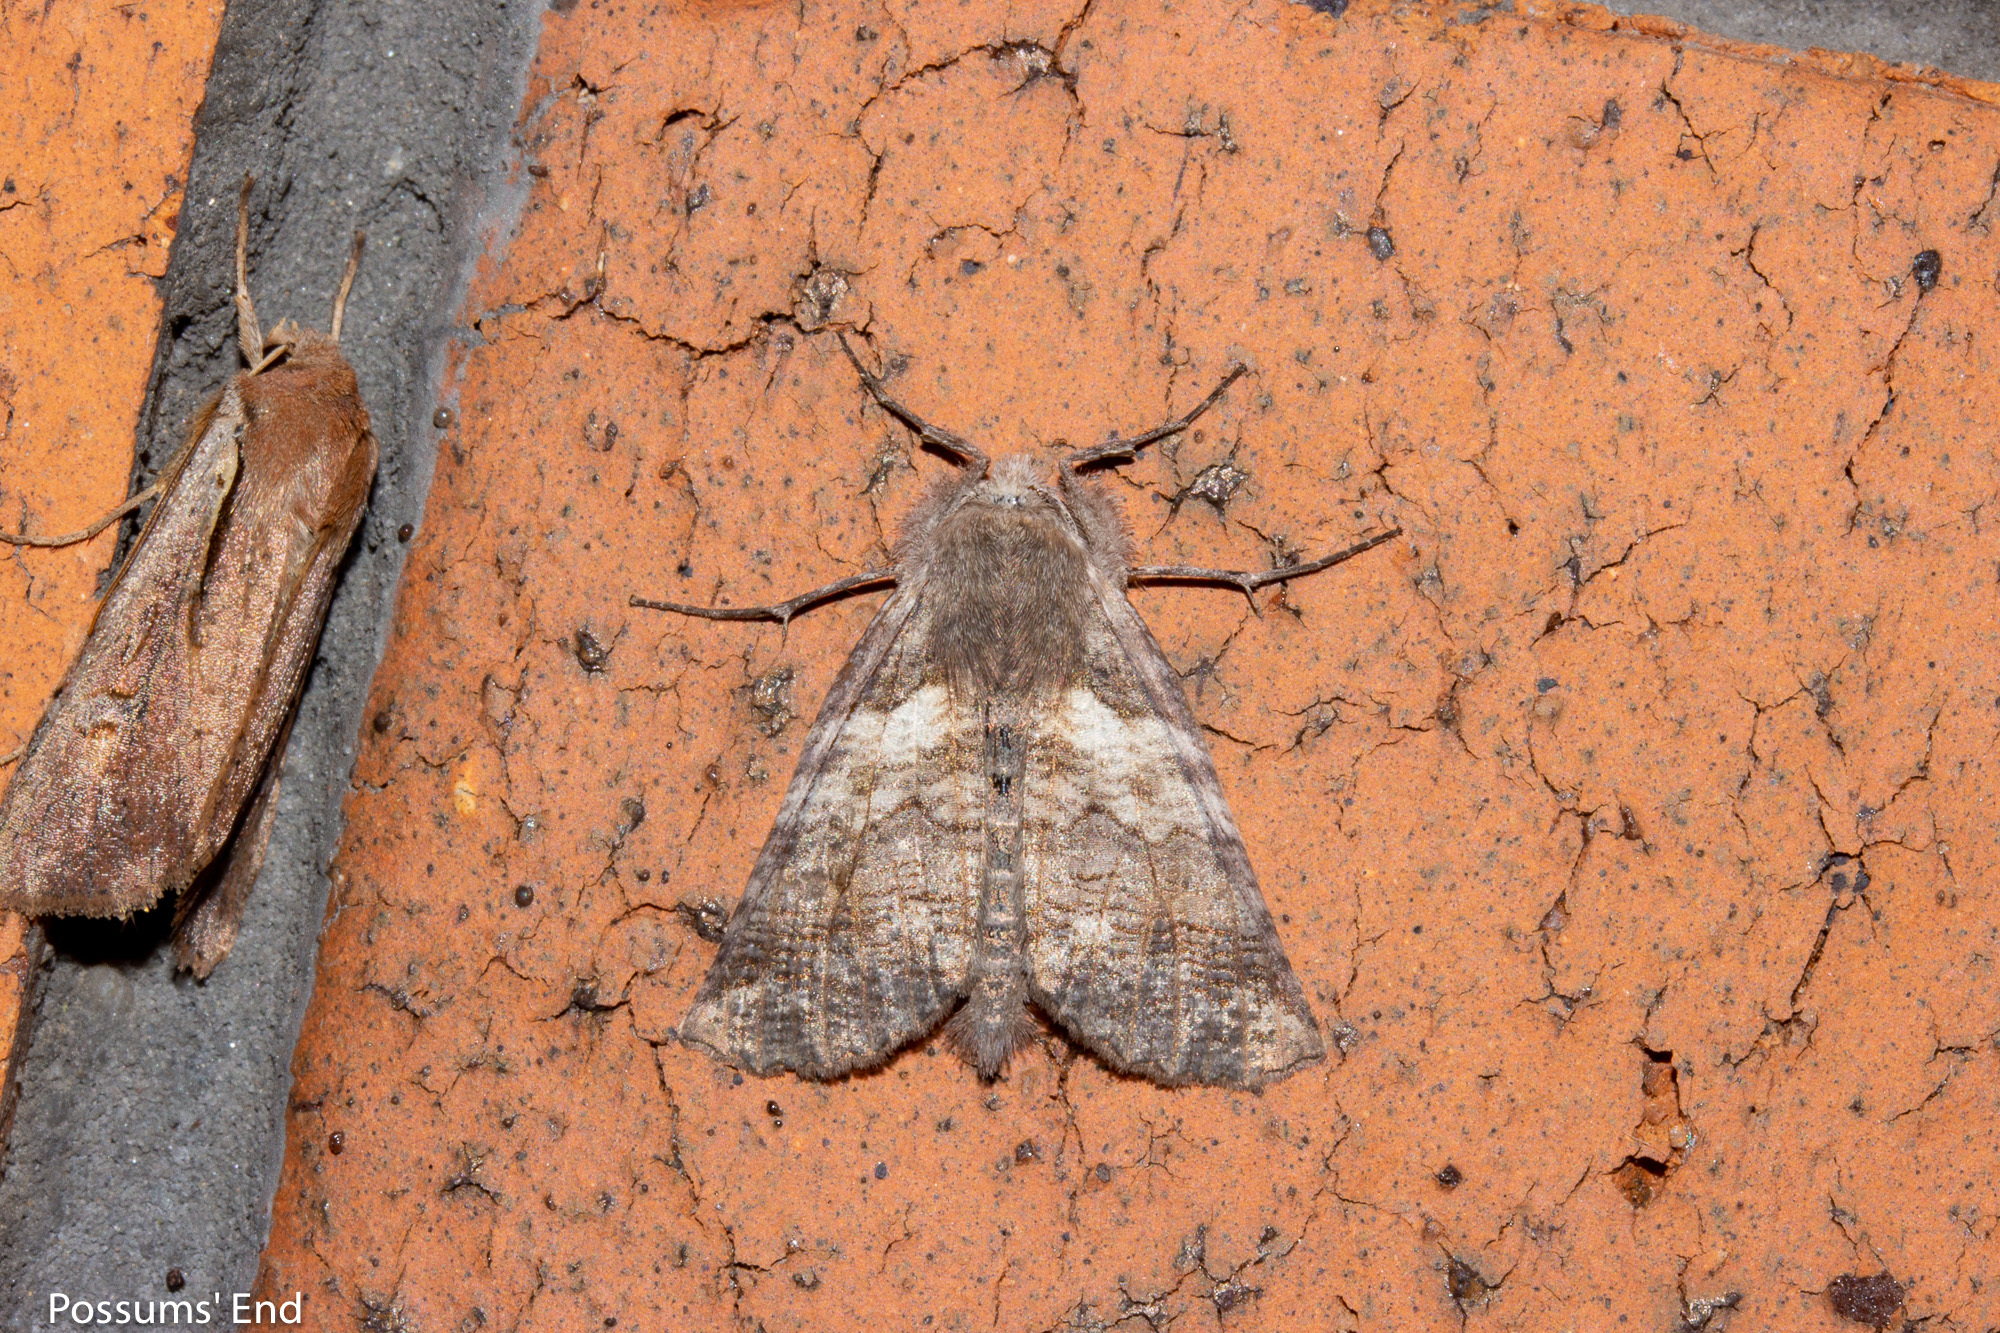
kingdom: Animalia
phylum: Arthropoda
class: Insecta
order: Lepidoptera
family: Geometridae
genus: Declana
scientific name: Declana
